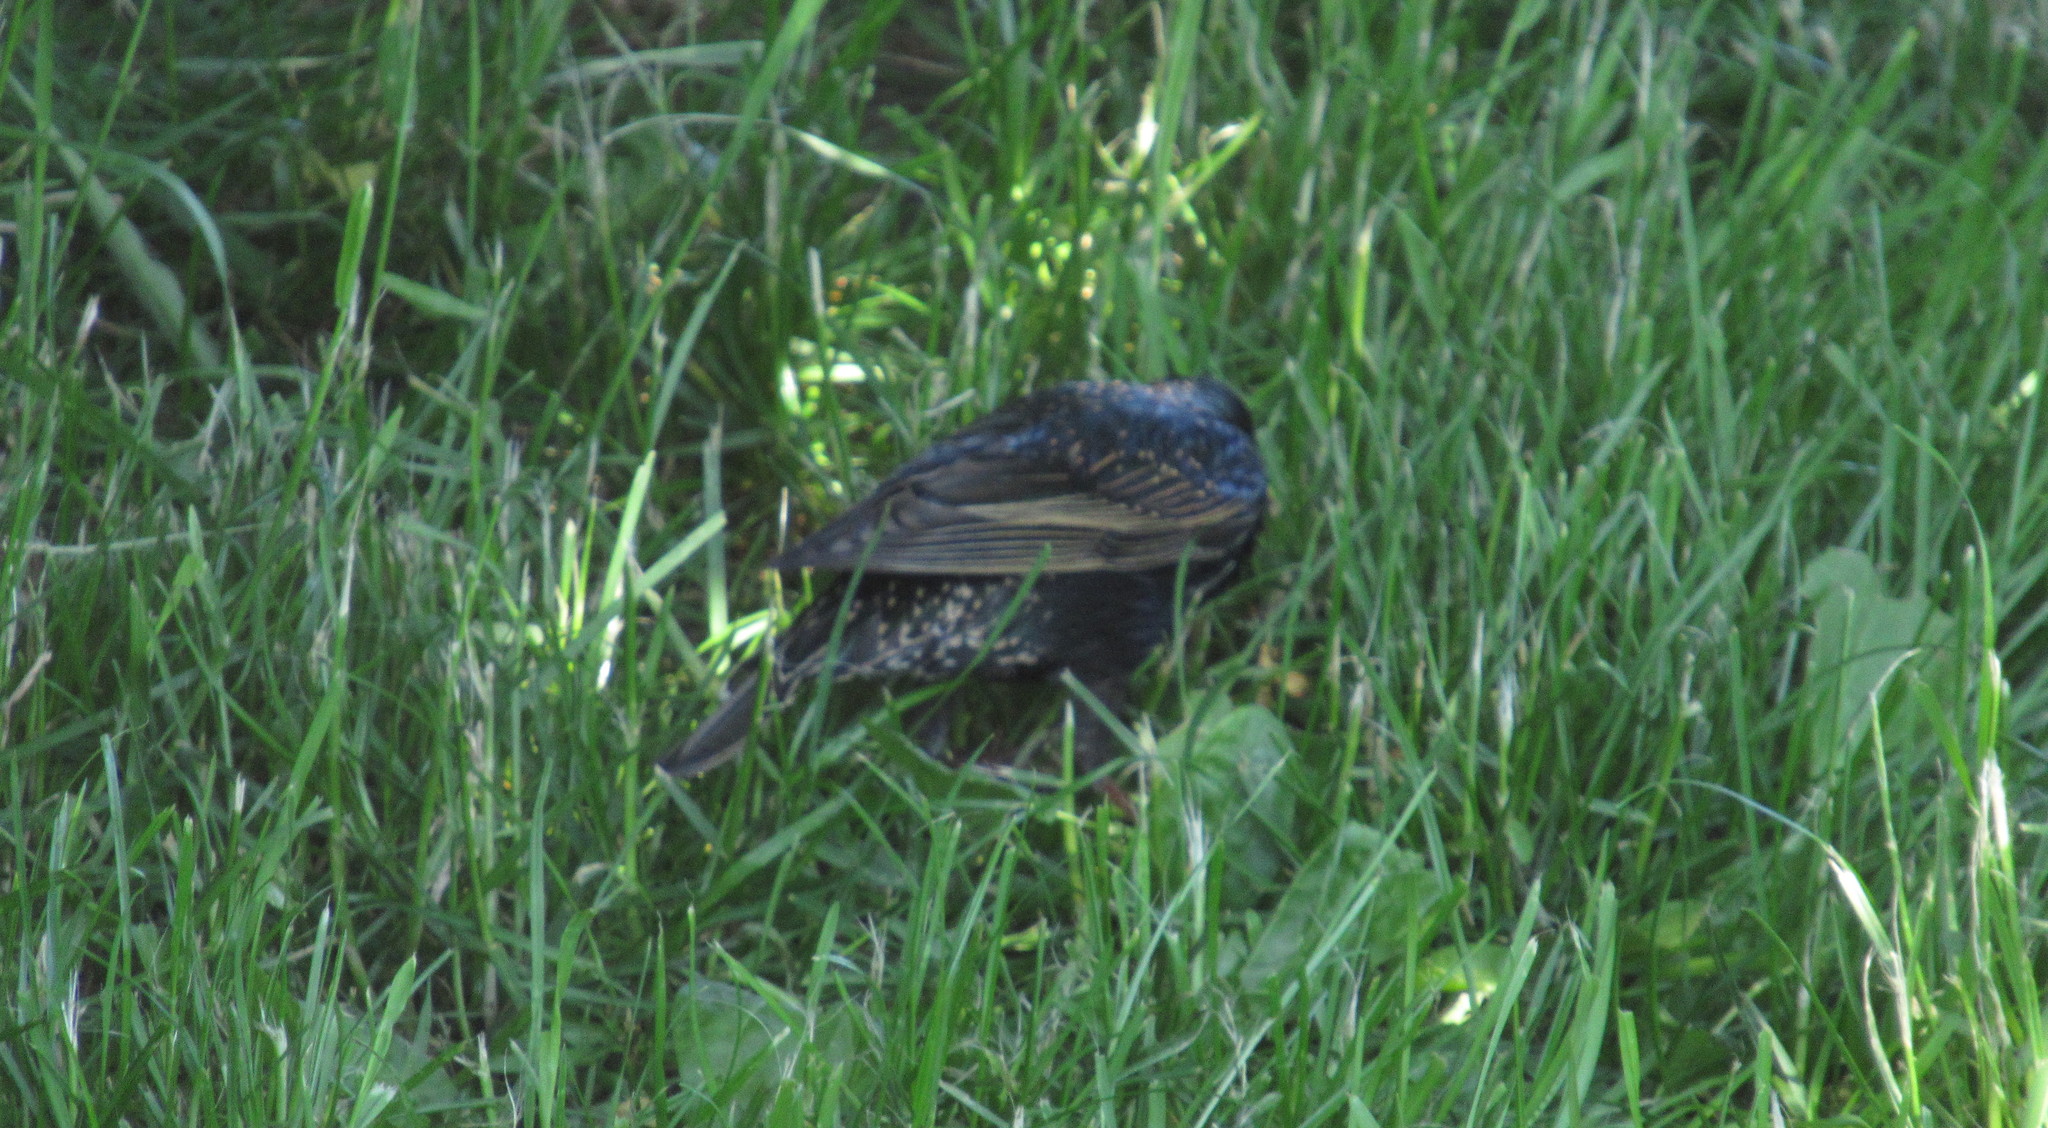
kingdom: Animalia
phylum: Chordata
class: Aves
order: Passeriformes
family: Sturnidae
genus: Sturnus
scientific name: Sturnus vulgaris
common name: Common starling
